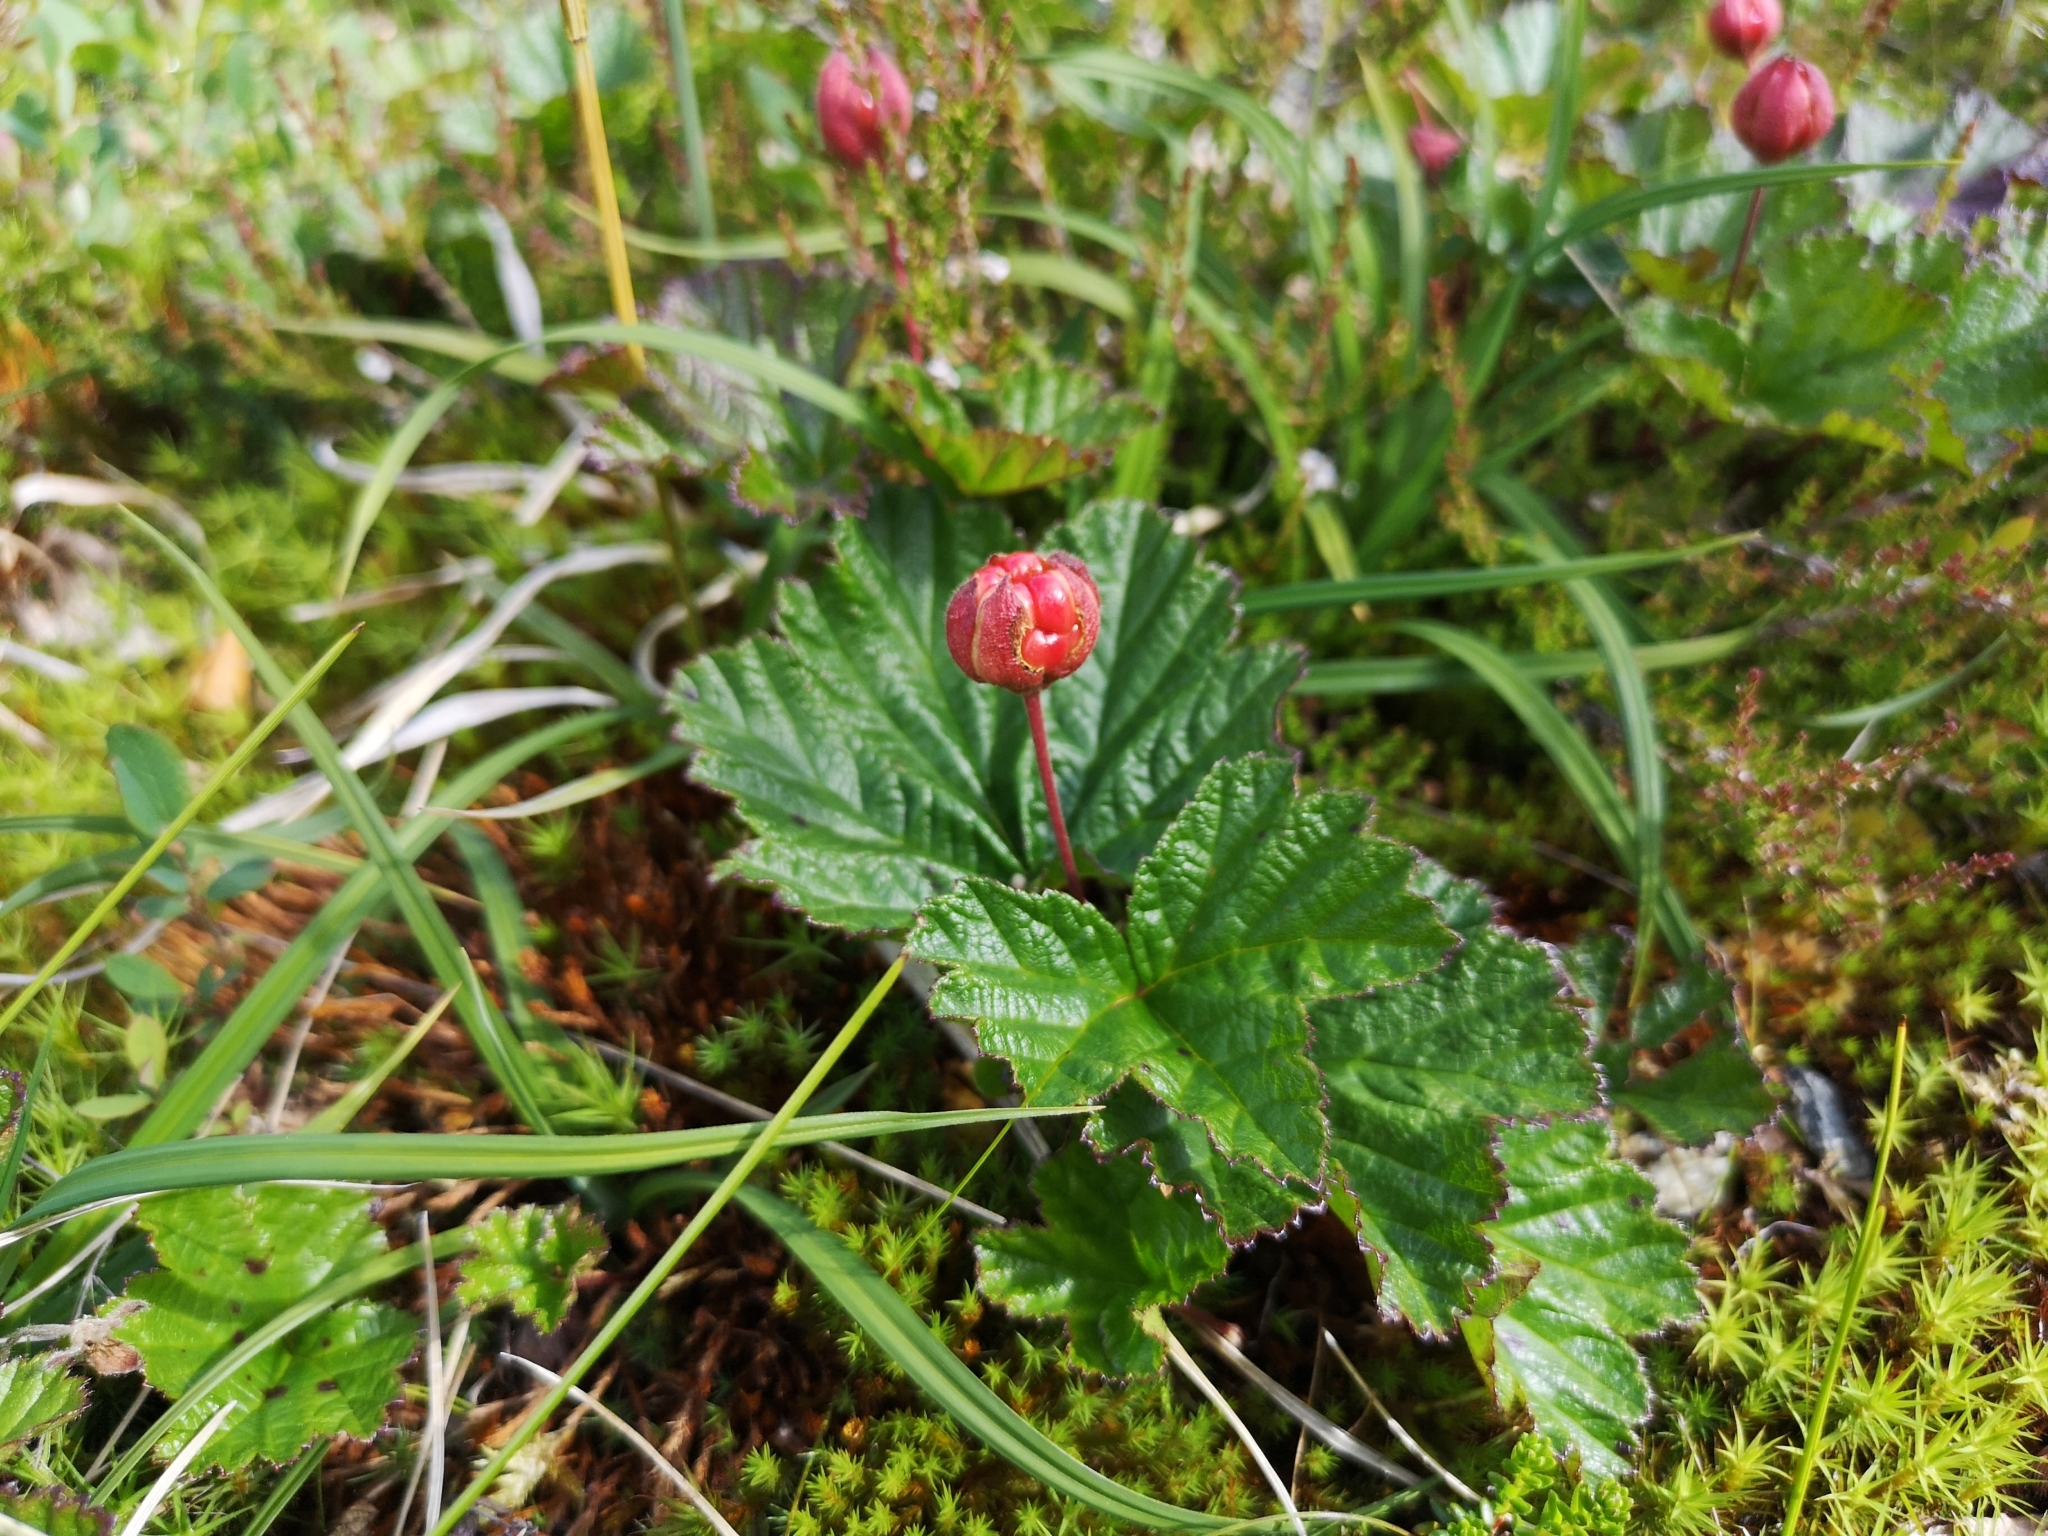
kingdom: Plantae
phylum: Tracheophyta
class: Magnoliopsida
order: Rosales
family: Rosaceae
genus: Rubus
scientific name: Rubus chamaemorus
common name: Cloudberry
